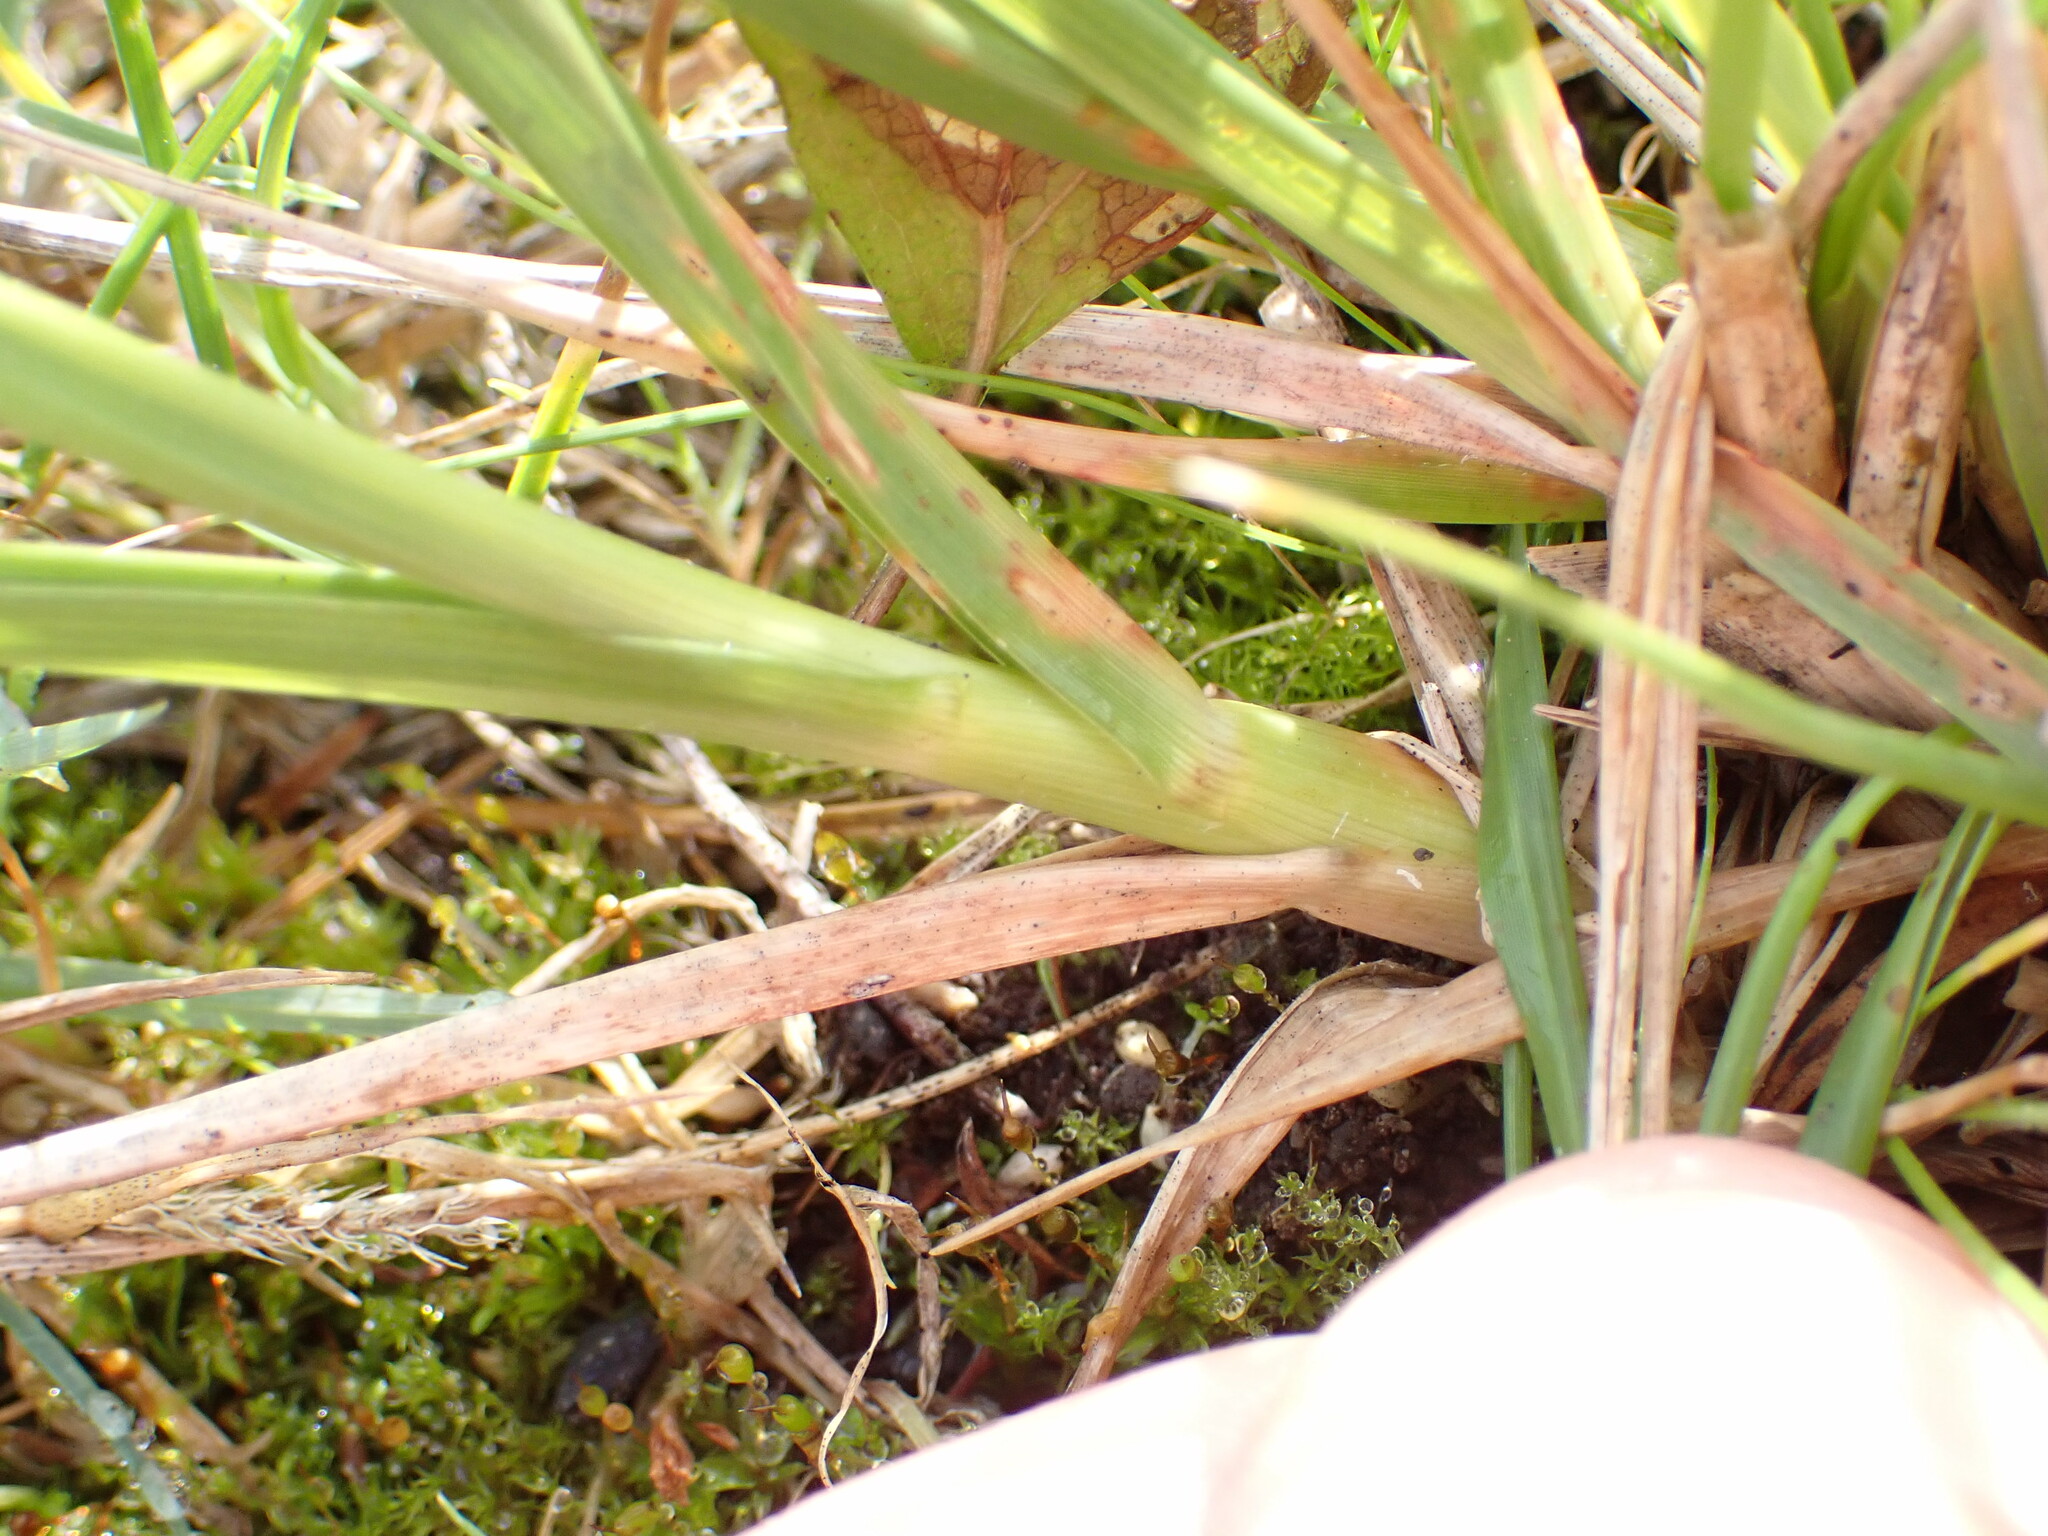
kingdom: Plantae
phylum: Tracheophyta
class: Liliopsida
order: Poales
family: Poaceae
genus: Sporobolus
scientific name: Sporobolus africanus
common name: African dropseed
